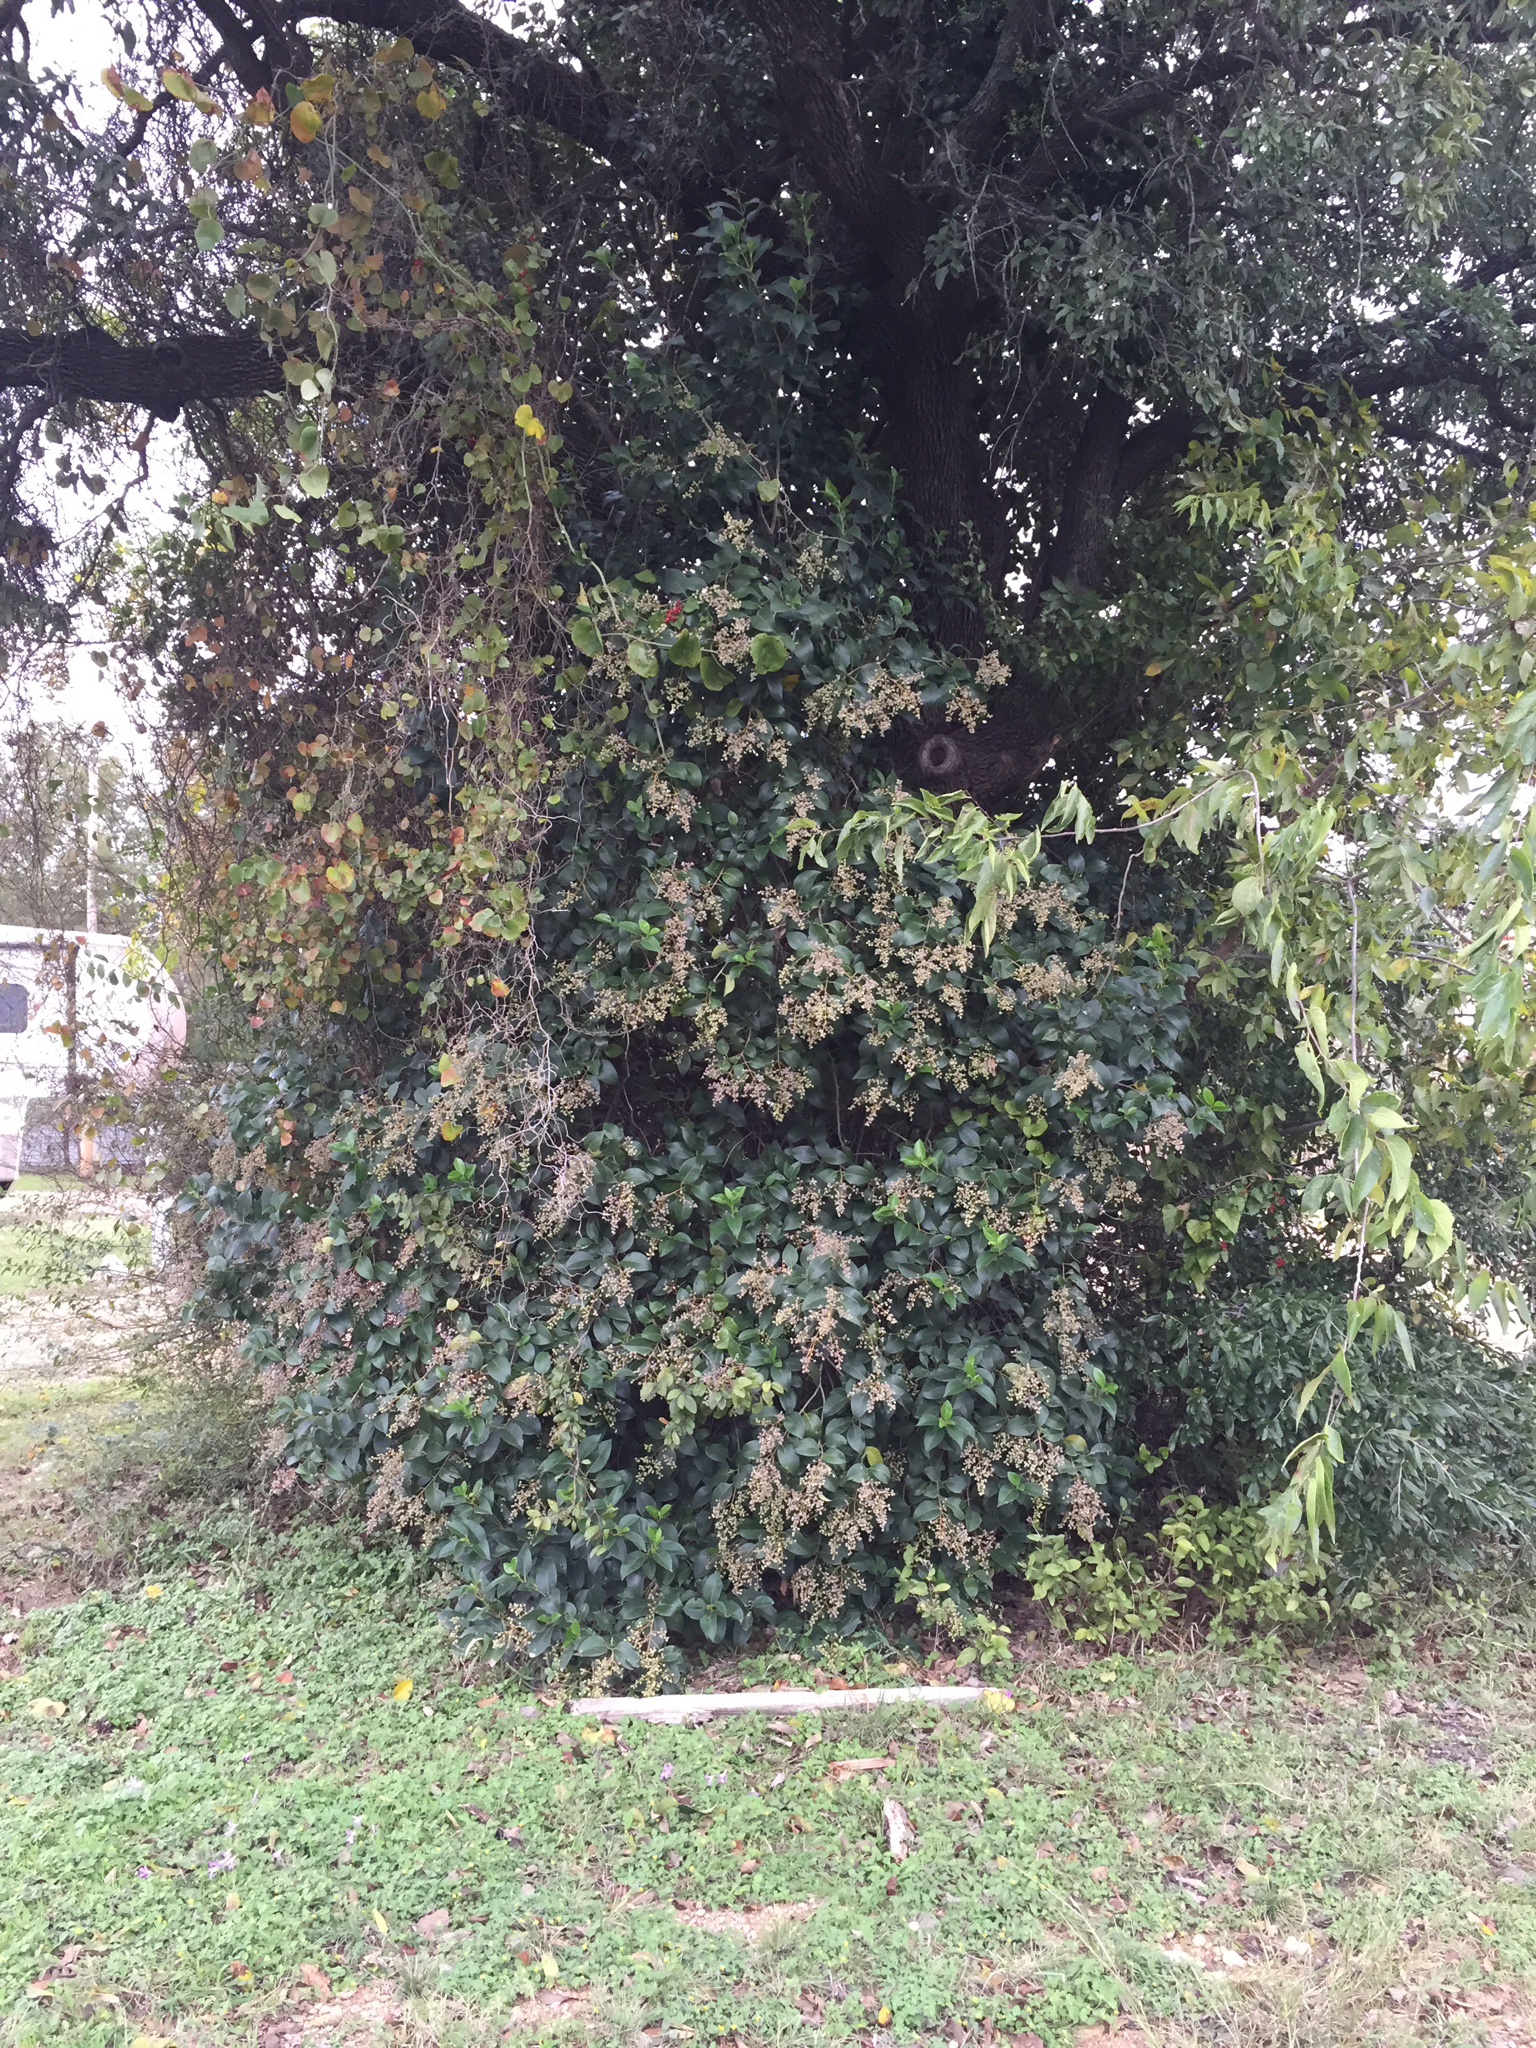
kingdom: Plantae
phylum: Tracheophyta
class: Magnoliopsida
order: Lamiales
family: Oleaceae
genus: Ligustrum
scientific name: Ligustrum lucidum
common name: Glossy privet
